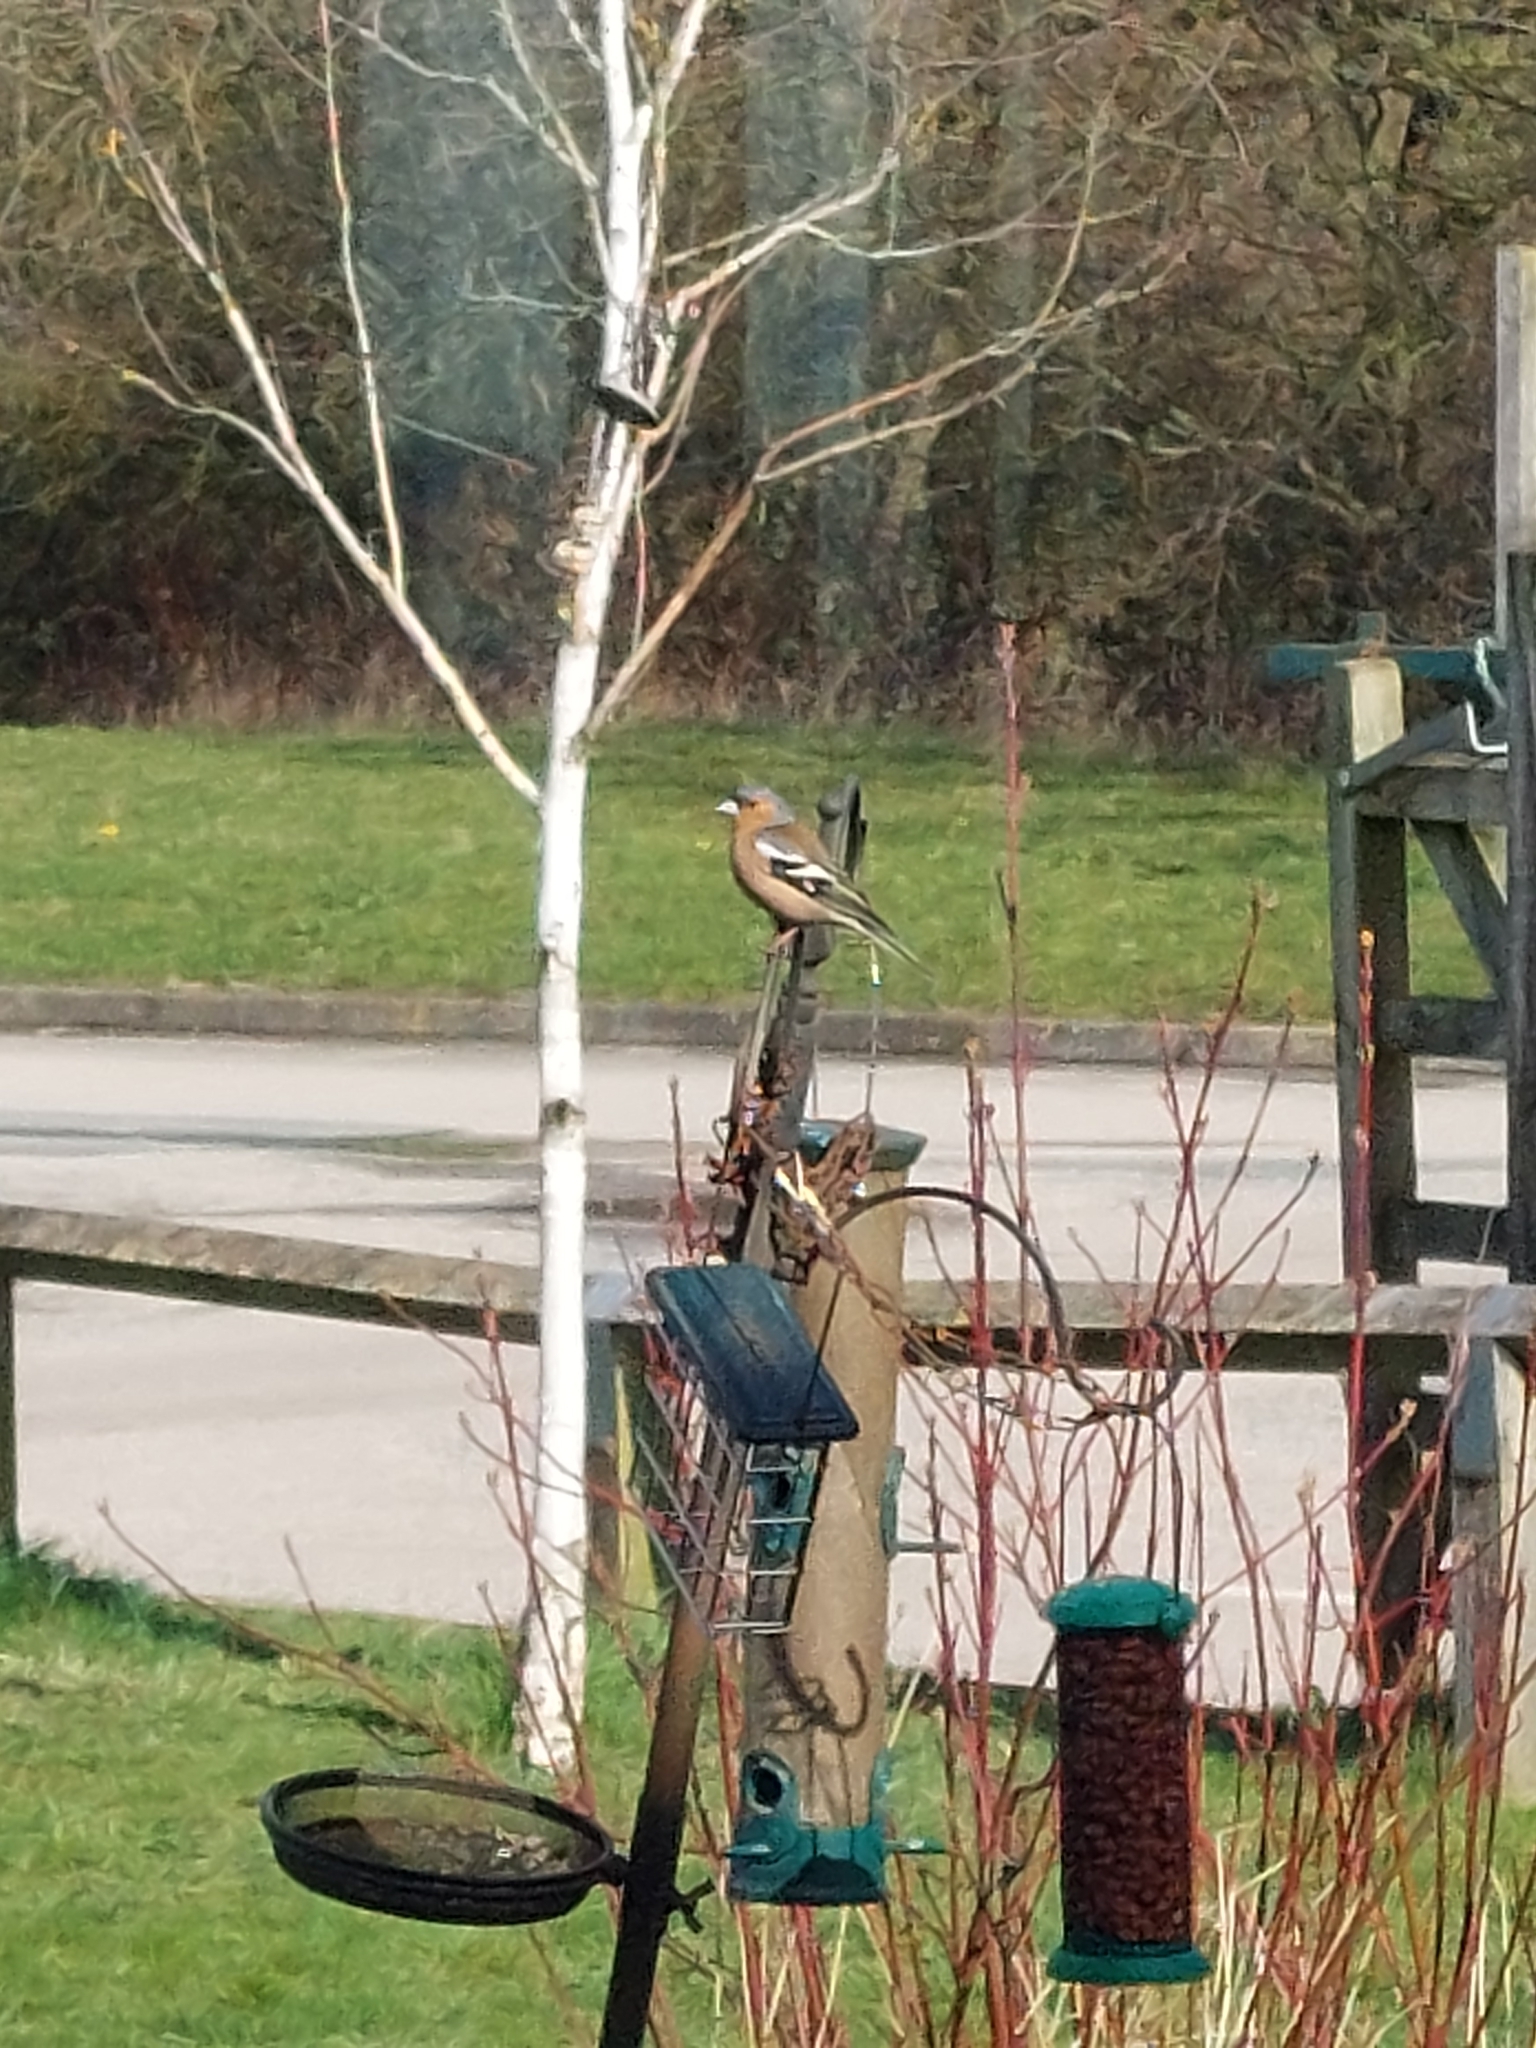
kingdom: Animalia
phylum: Chordata
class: Aves
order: Passeriformes
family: Fringillidae
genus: Fringilla
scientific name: Fringilla coelebs
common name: Common chaffinch
